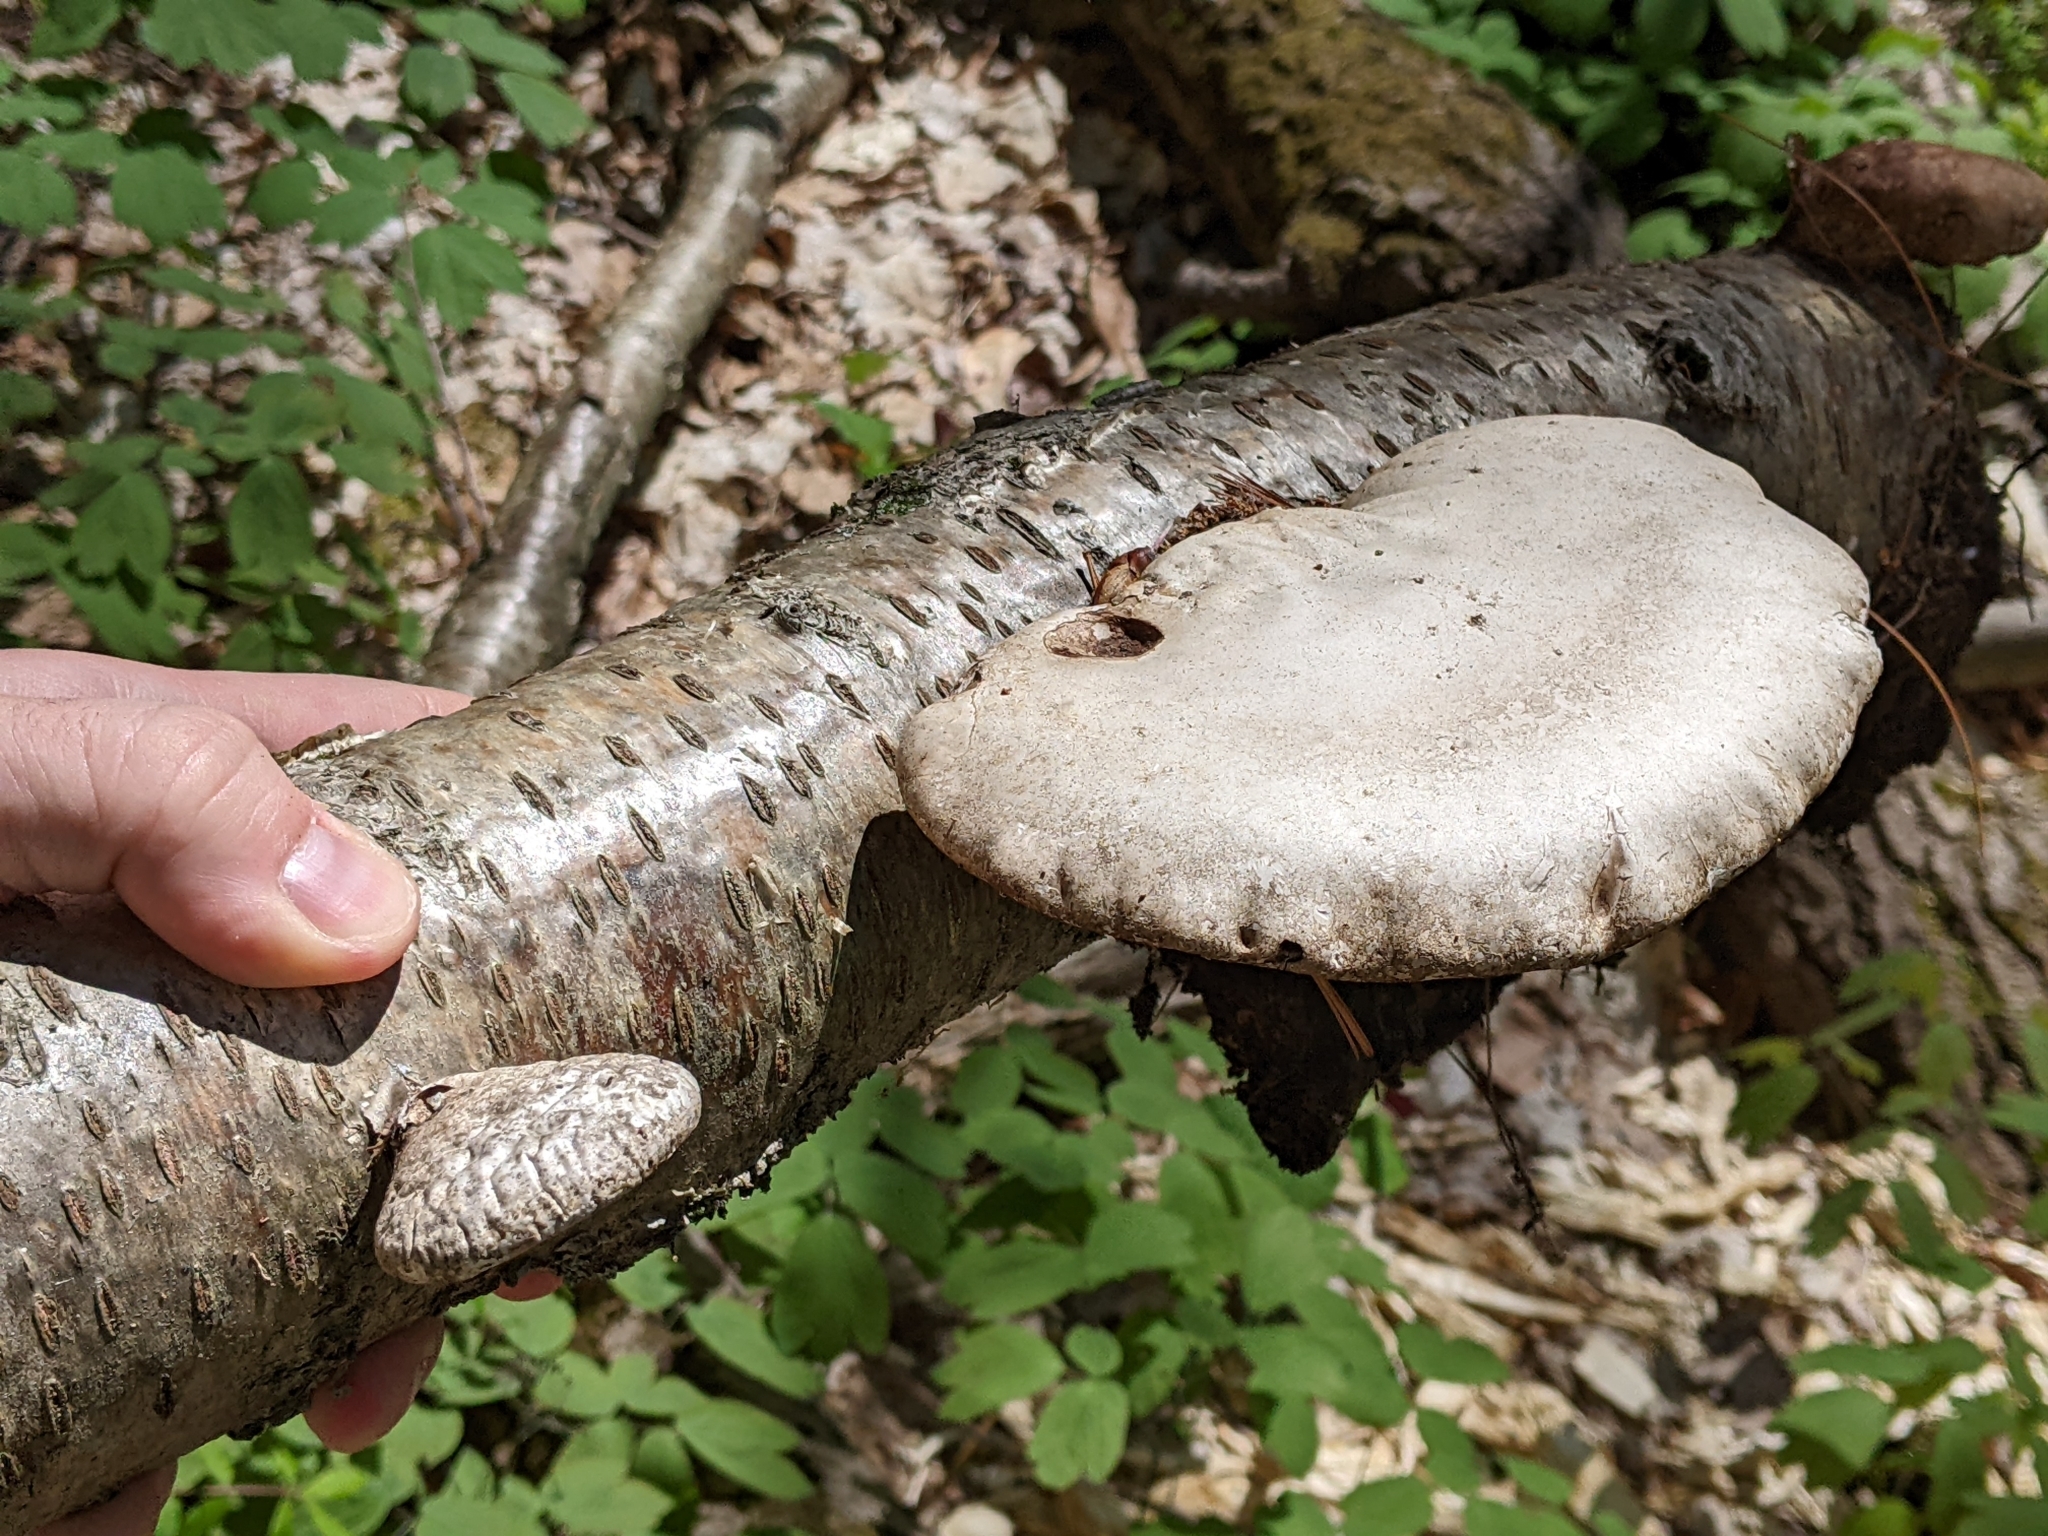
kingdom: Fungi
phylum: Basidiomycota
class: Agaricomycetes
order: Polyporales
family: Fomitopsidaceae
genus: Fomitopsis
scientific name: Fomitopsis betulina
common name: Birch polypore
